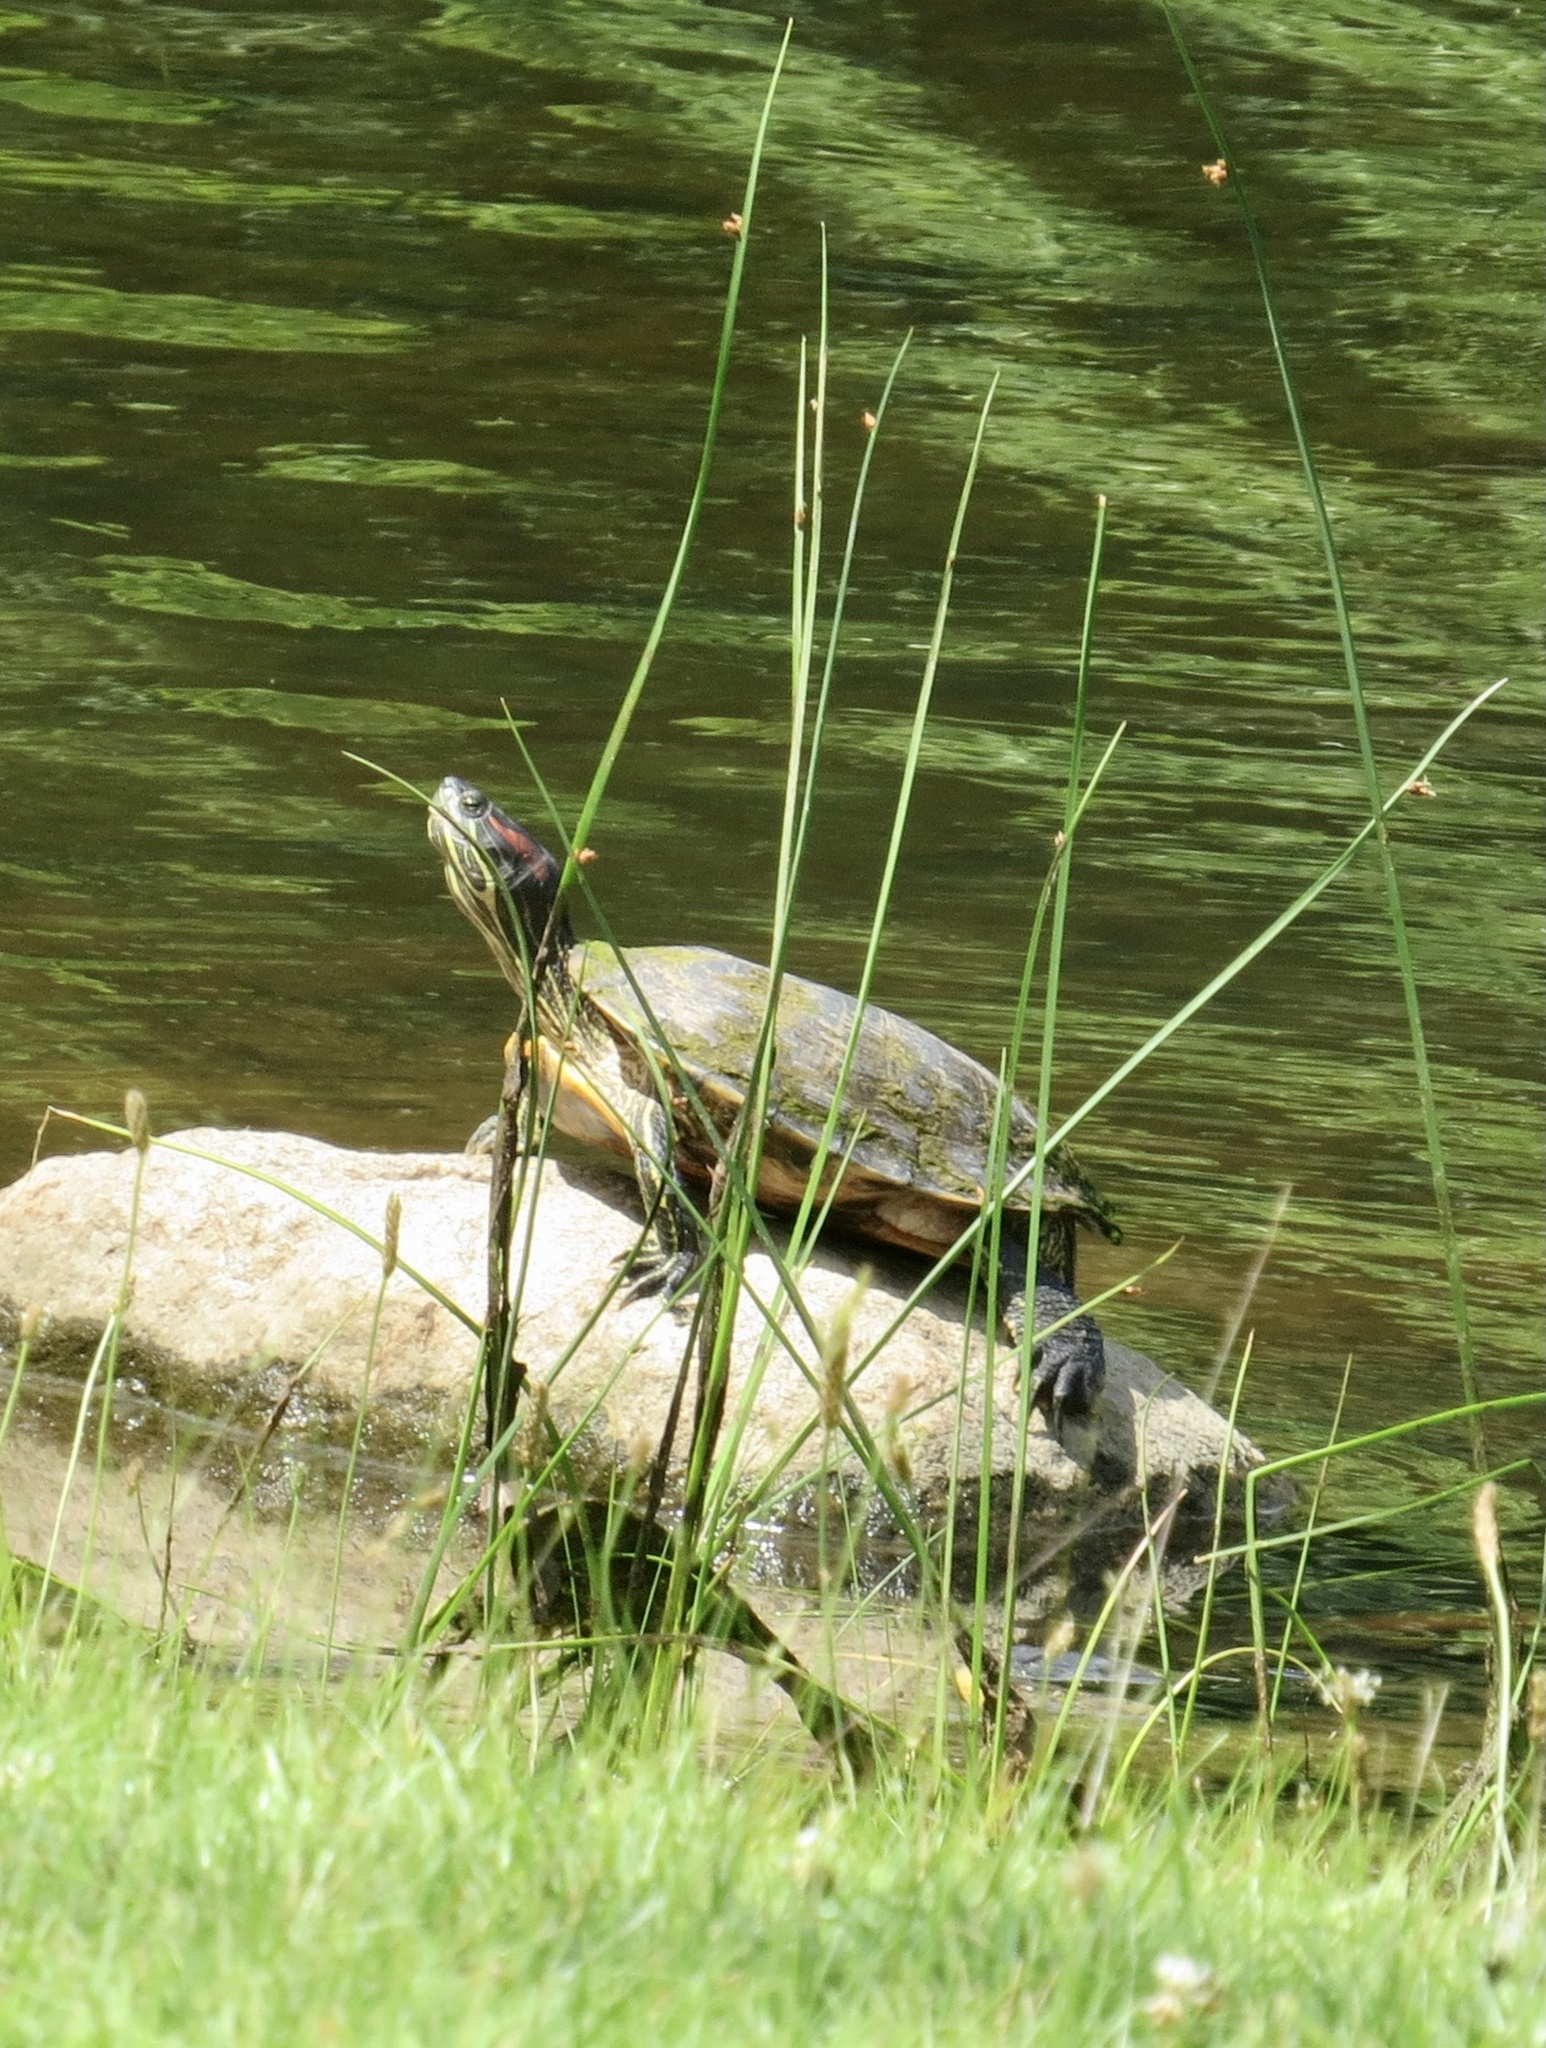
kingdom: Animalia
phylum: Chordata
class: Testudines
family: Emydidae
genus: Trachemys
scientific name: Trachemys scripta
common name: Slider
